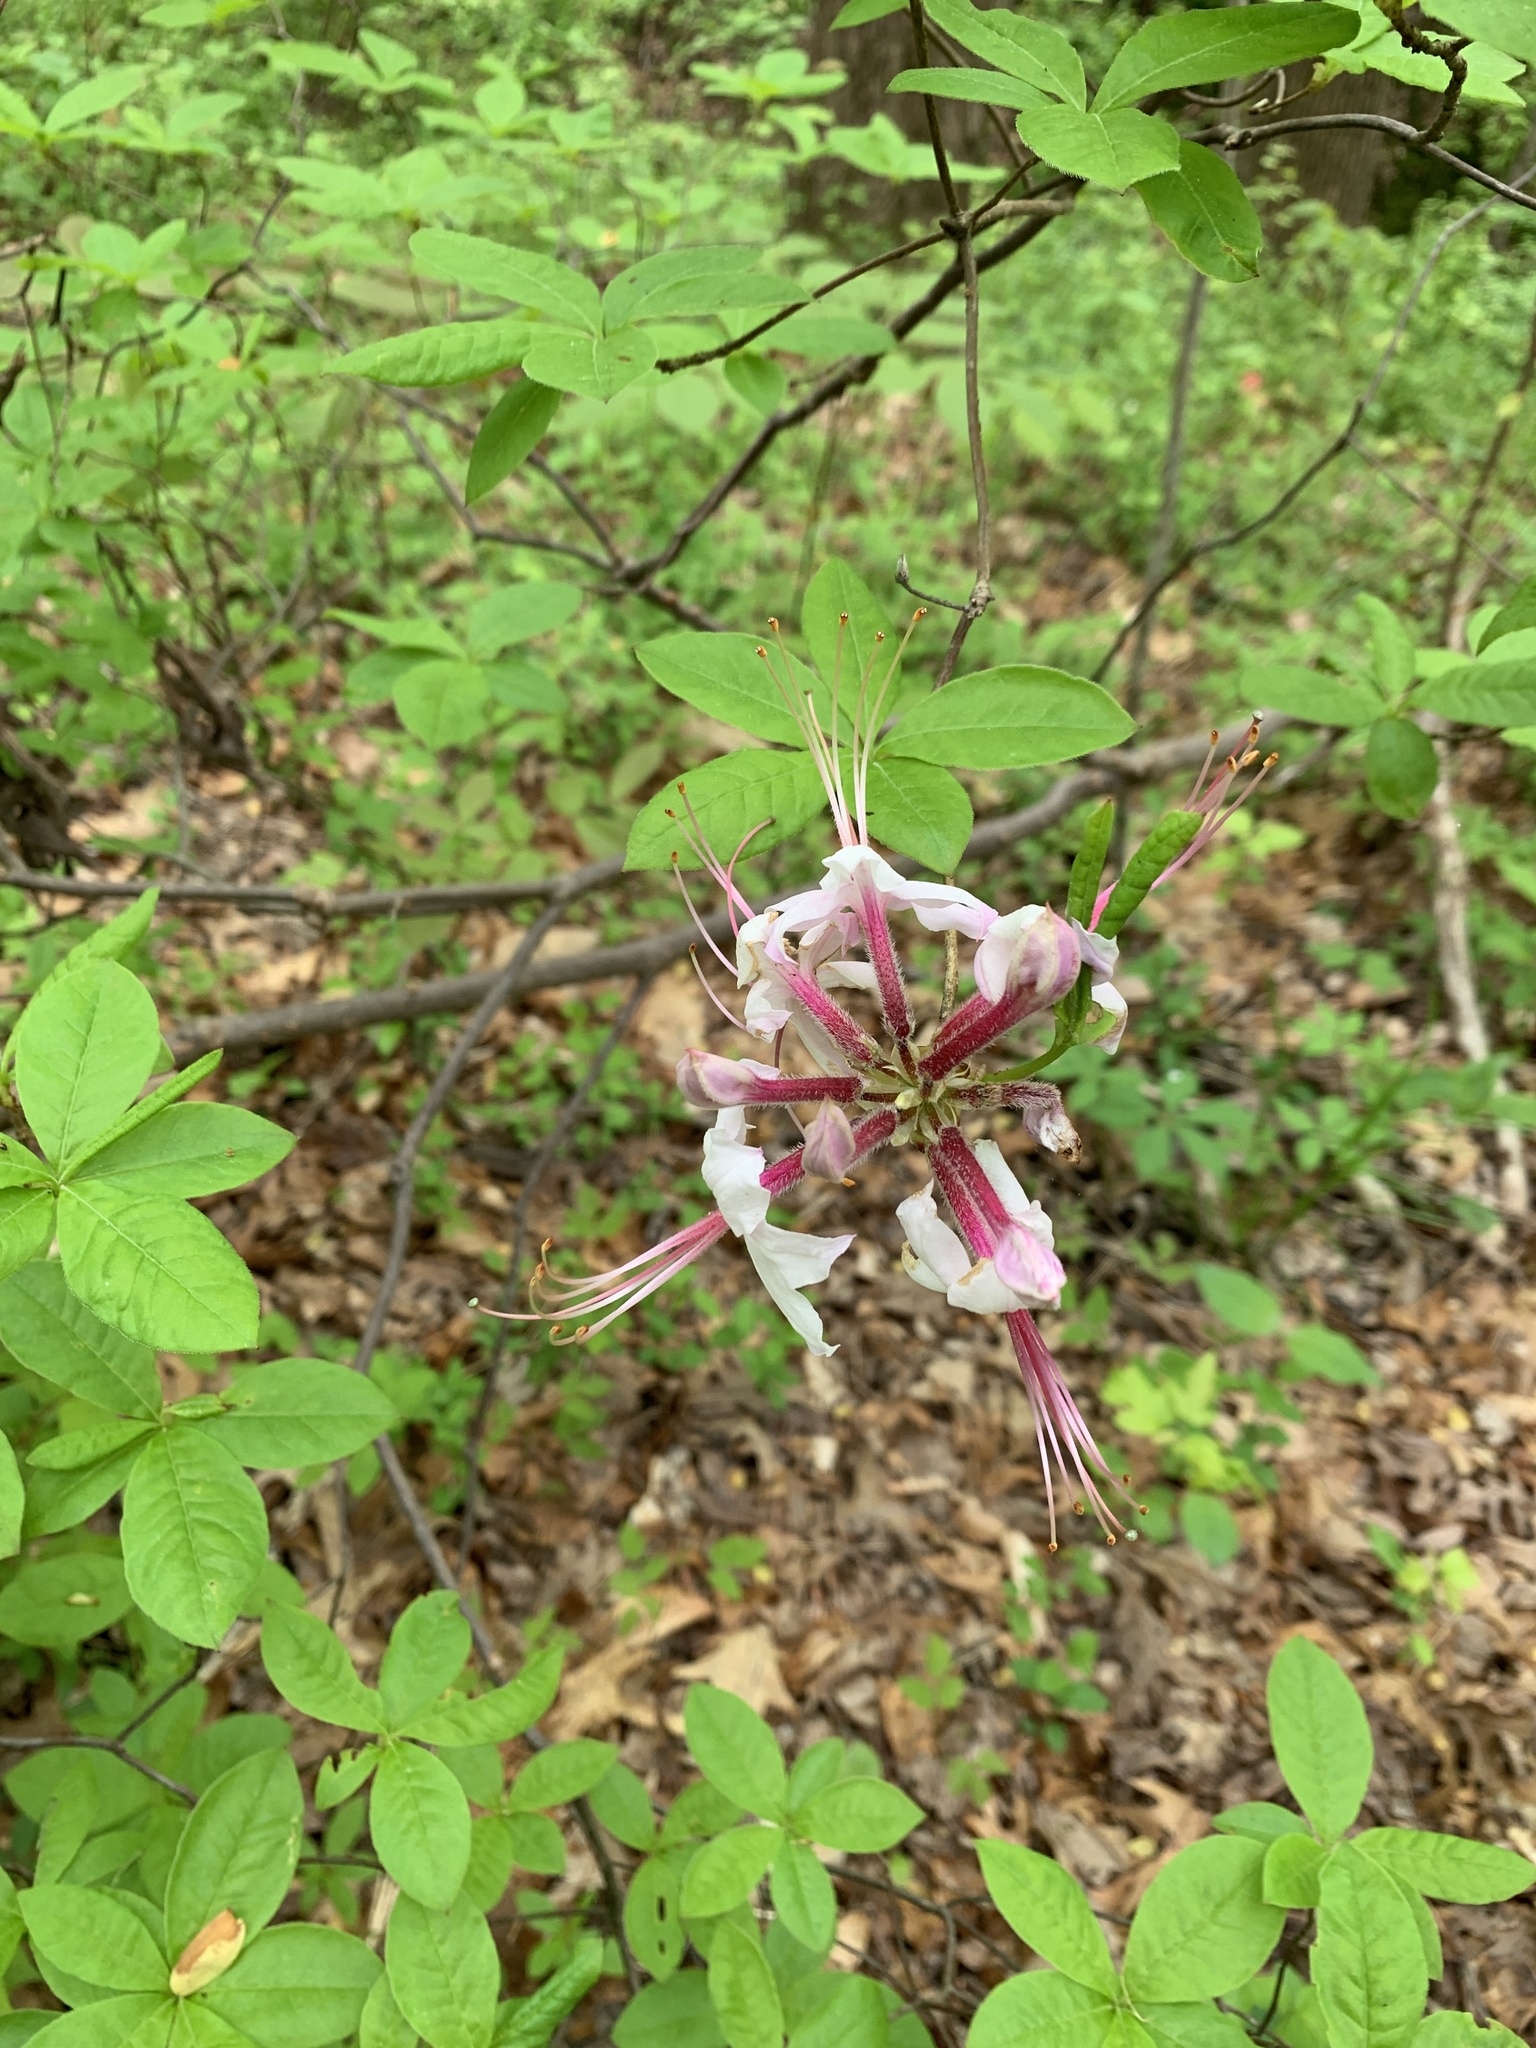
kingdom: Plantae
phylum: Tracheophyta
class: Magnoliopsida
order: Ericales
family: Ericaceae
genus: Rhododendron
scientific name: Rhododendron periclymenoides
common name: Election-pink
